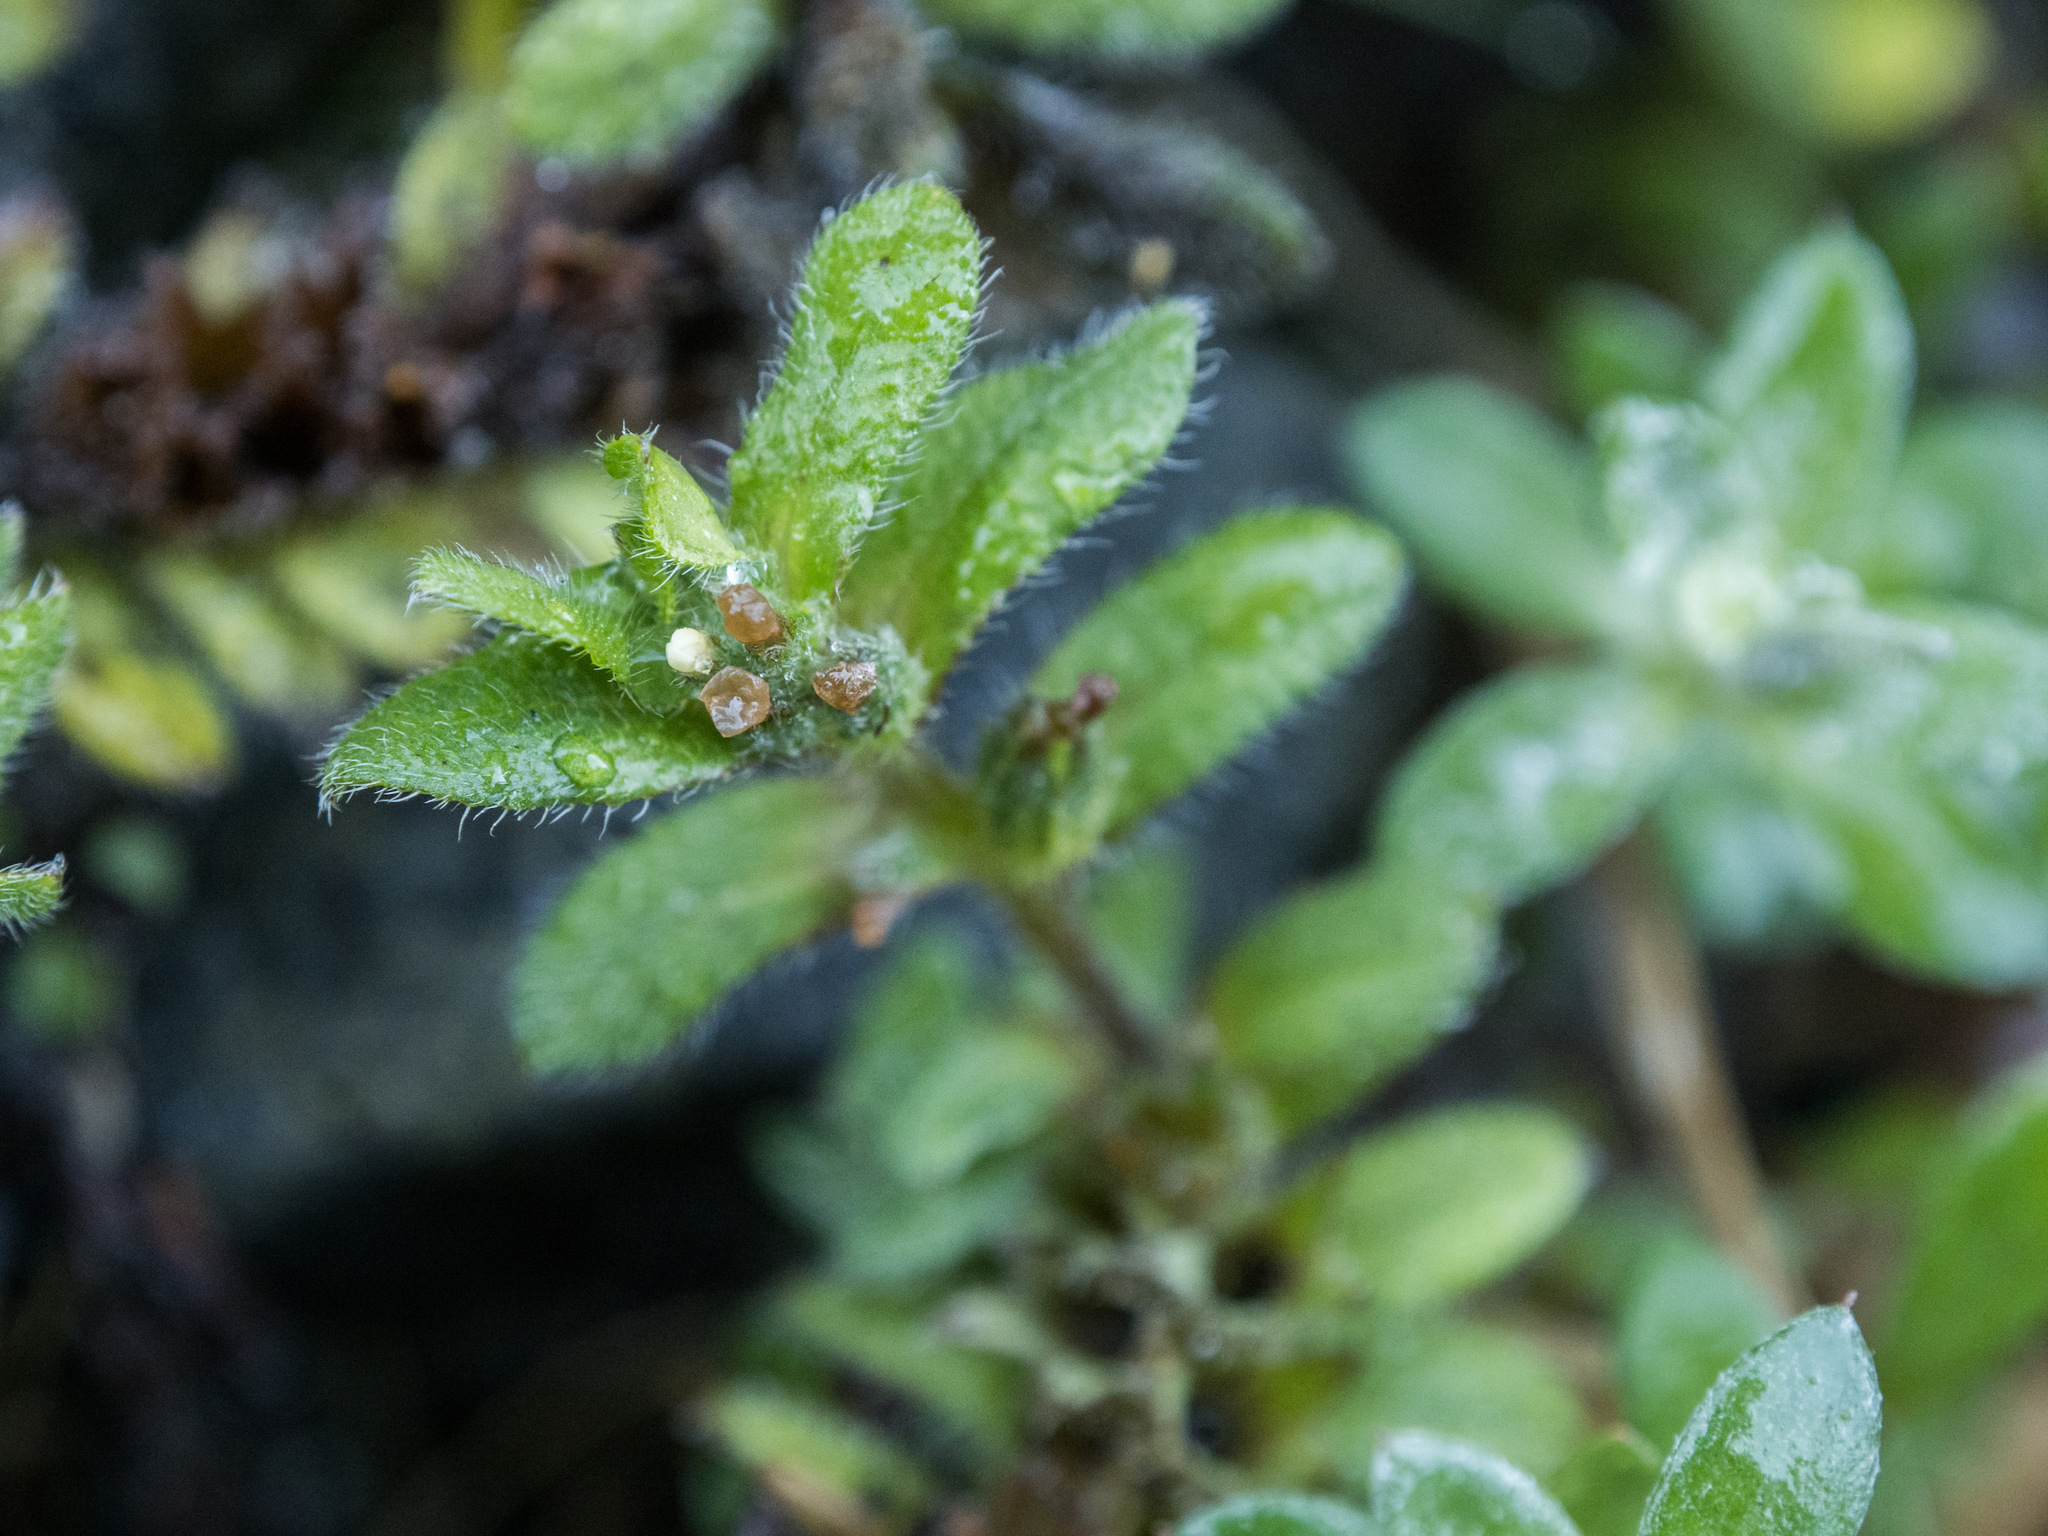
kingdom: Plantae
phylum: Tracheophyta
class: Magnoliopsida
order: Boraginales
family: Boraginaceae
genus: Myosotis
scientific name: Myosotis antarctica
